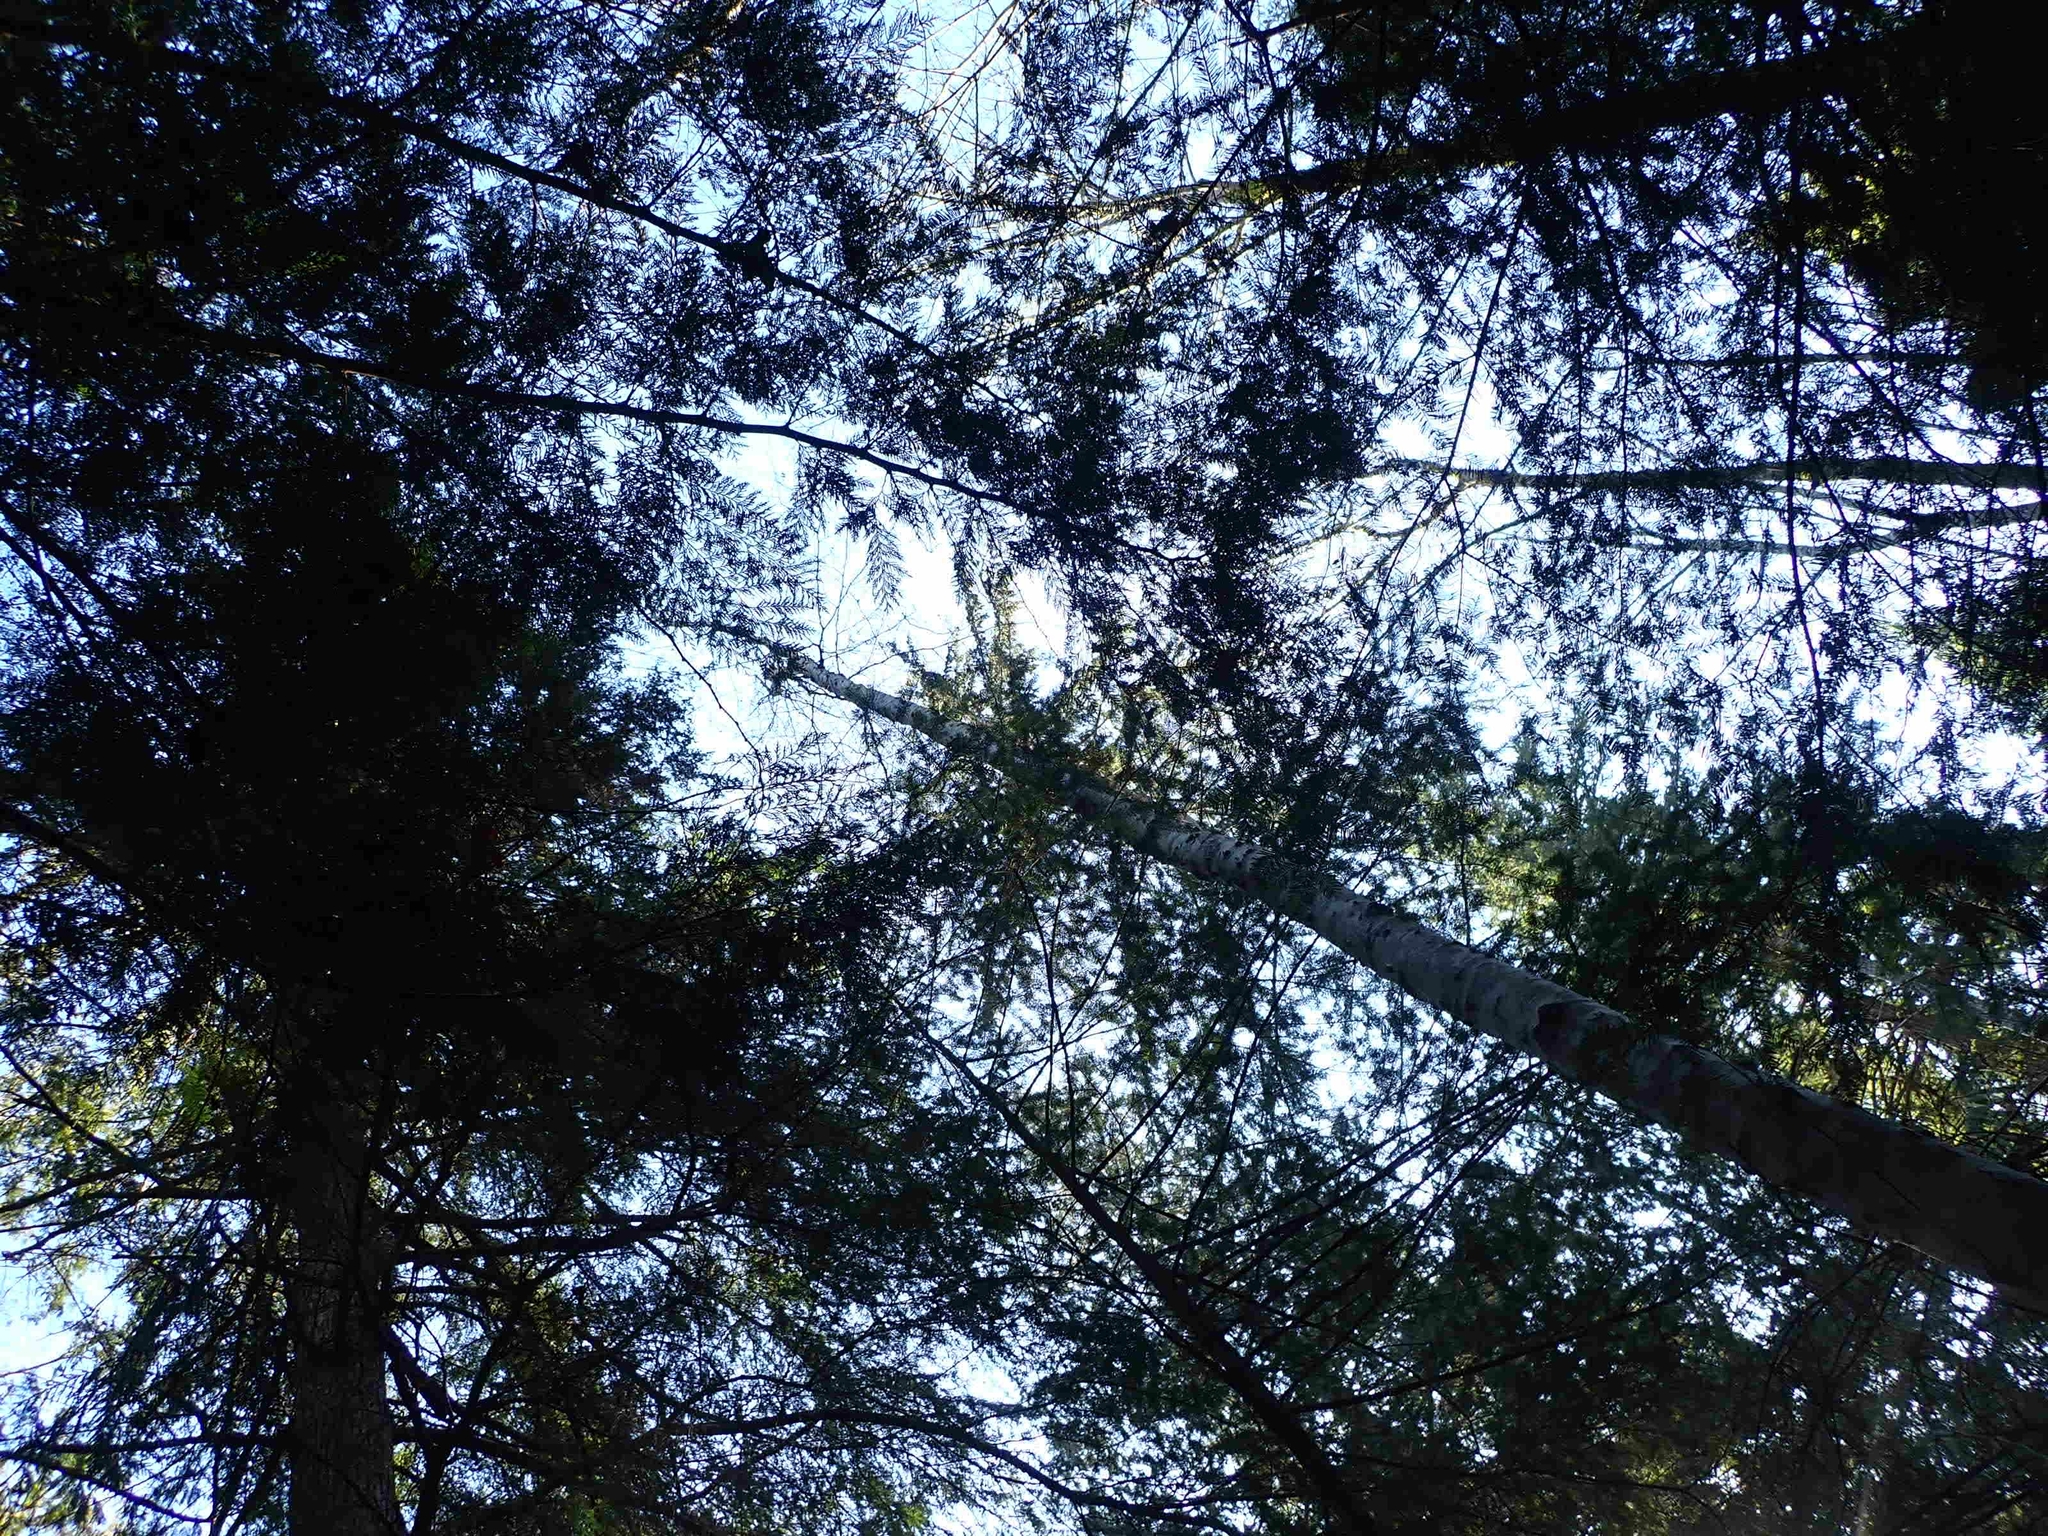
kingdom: Plantae
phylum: Tracheophyta
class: Magnoliopsida
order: Fagales
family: Betulaceae
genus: Alnus
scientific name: Alnus rubra
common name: Red alder
